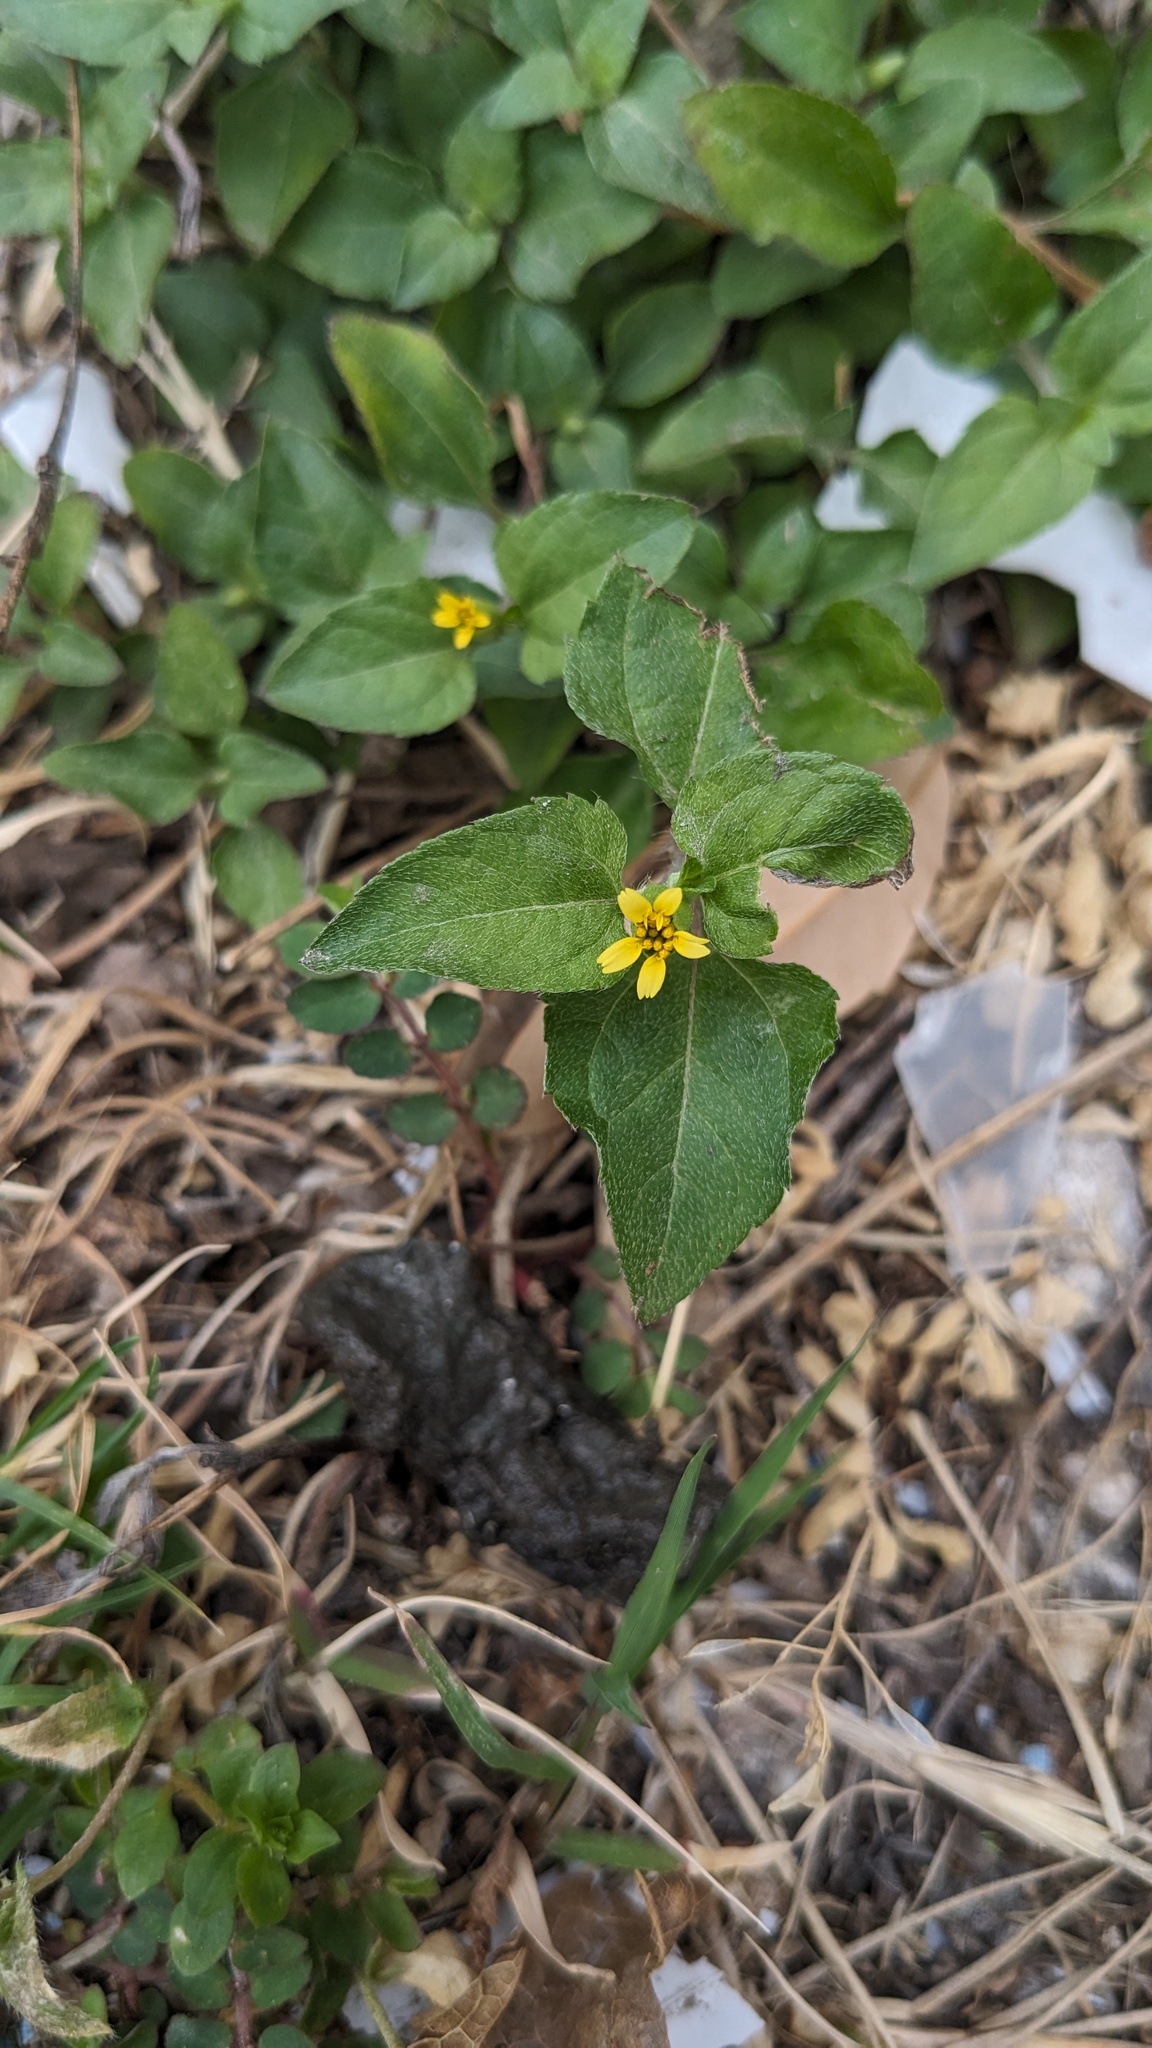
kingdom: Plantae
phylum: Tracheophyta
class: Magnoliopsida
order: Asterales
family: Asteraceae
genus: Calyptocarpus
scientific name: Calyptocarpus vialis
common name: Straggler daisy
